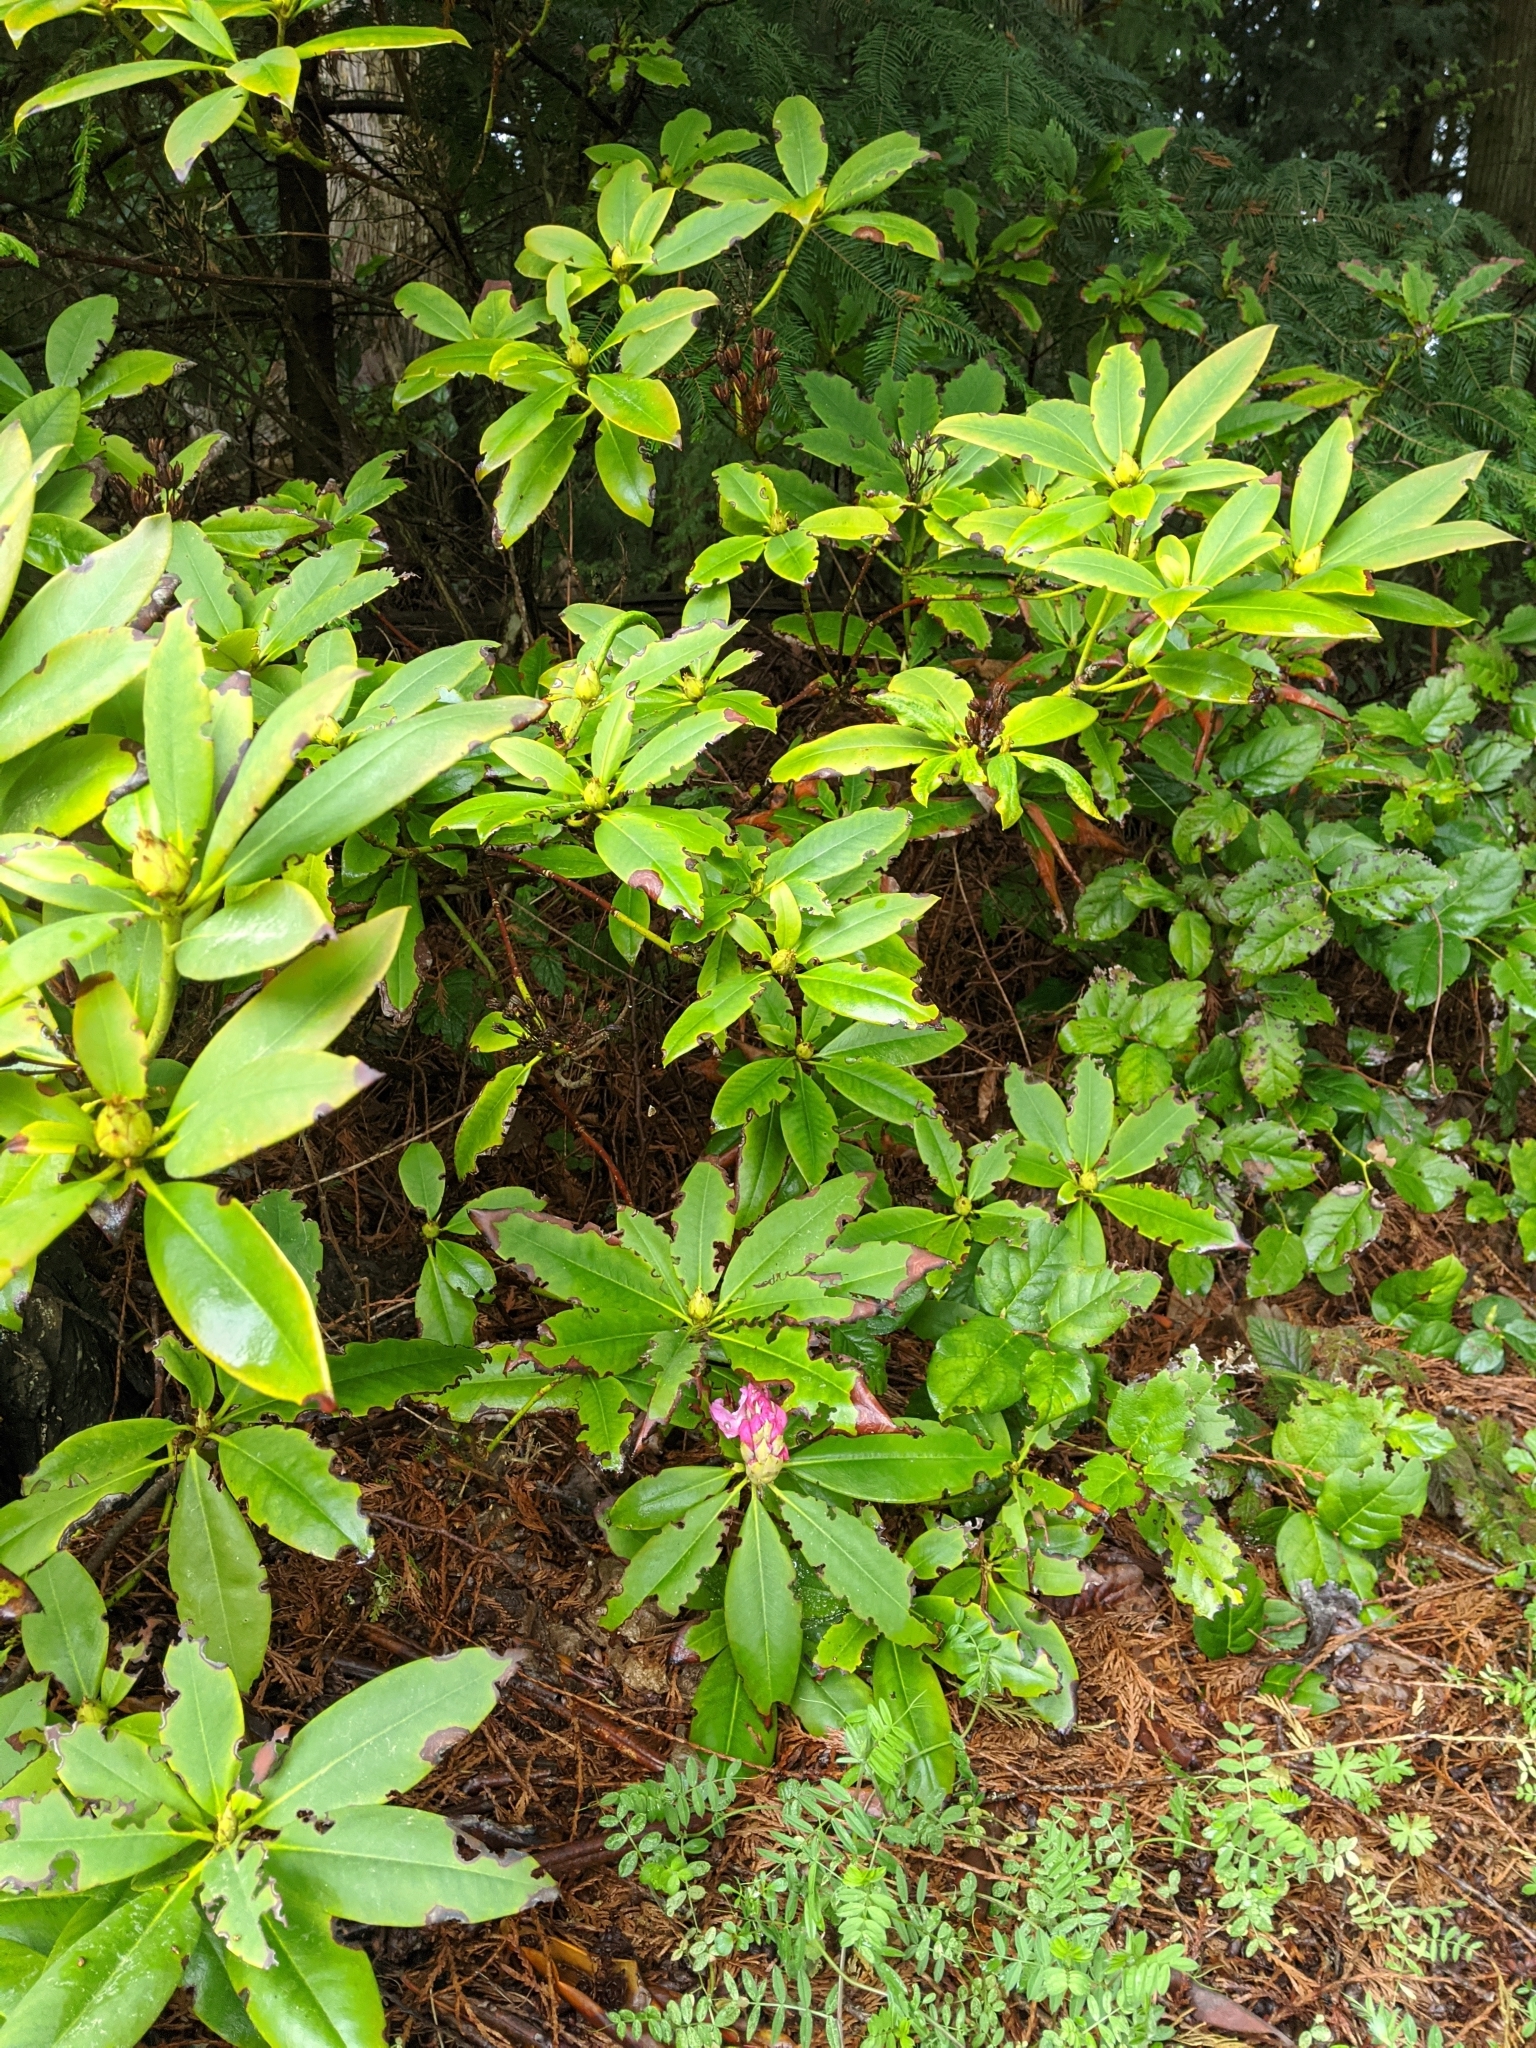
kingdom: Plantae
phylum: Tracheophyta
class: Magnoliopsida
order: Ericales
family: Ericaceae
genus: Rhododendron
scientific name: Rhododendron macrophyllum
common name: California rose bay
